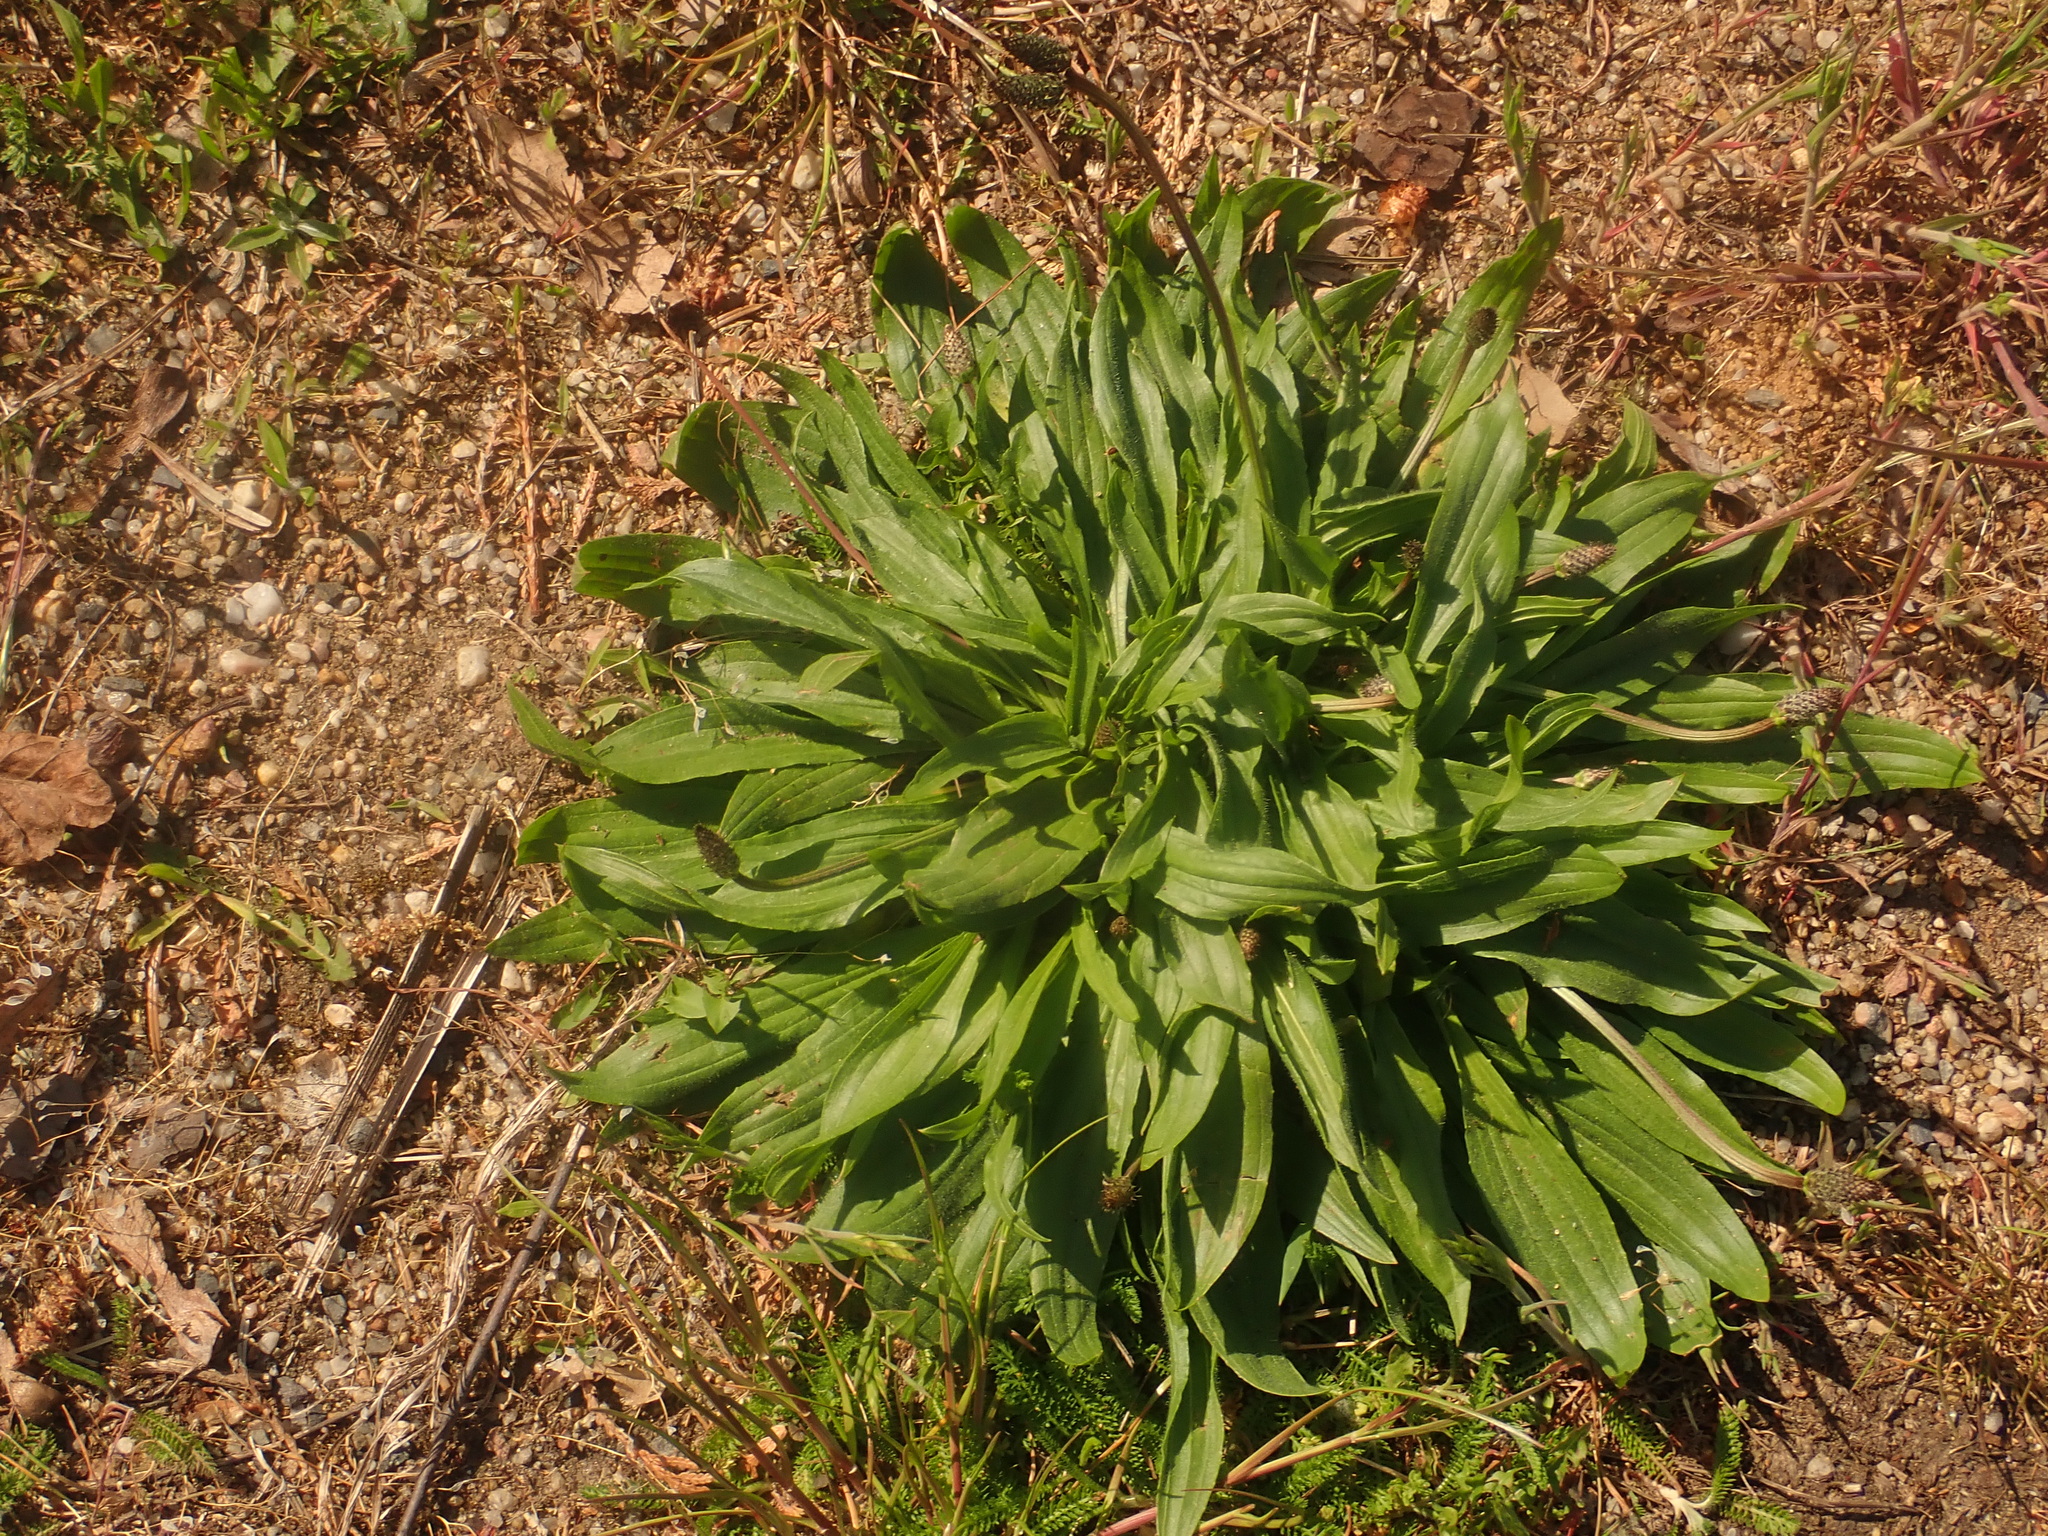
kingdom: Plantae
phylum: Tracheophyta
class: Magnoliopsida
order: Lamiales
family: Plantaginaceae
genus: Plantago
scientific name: Plantago lanceolata
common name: Ribwort plantain
